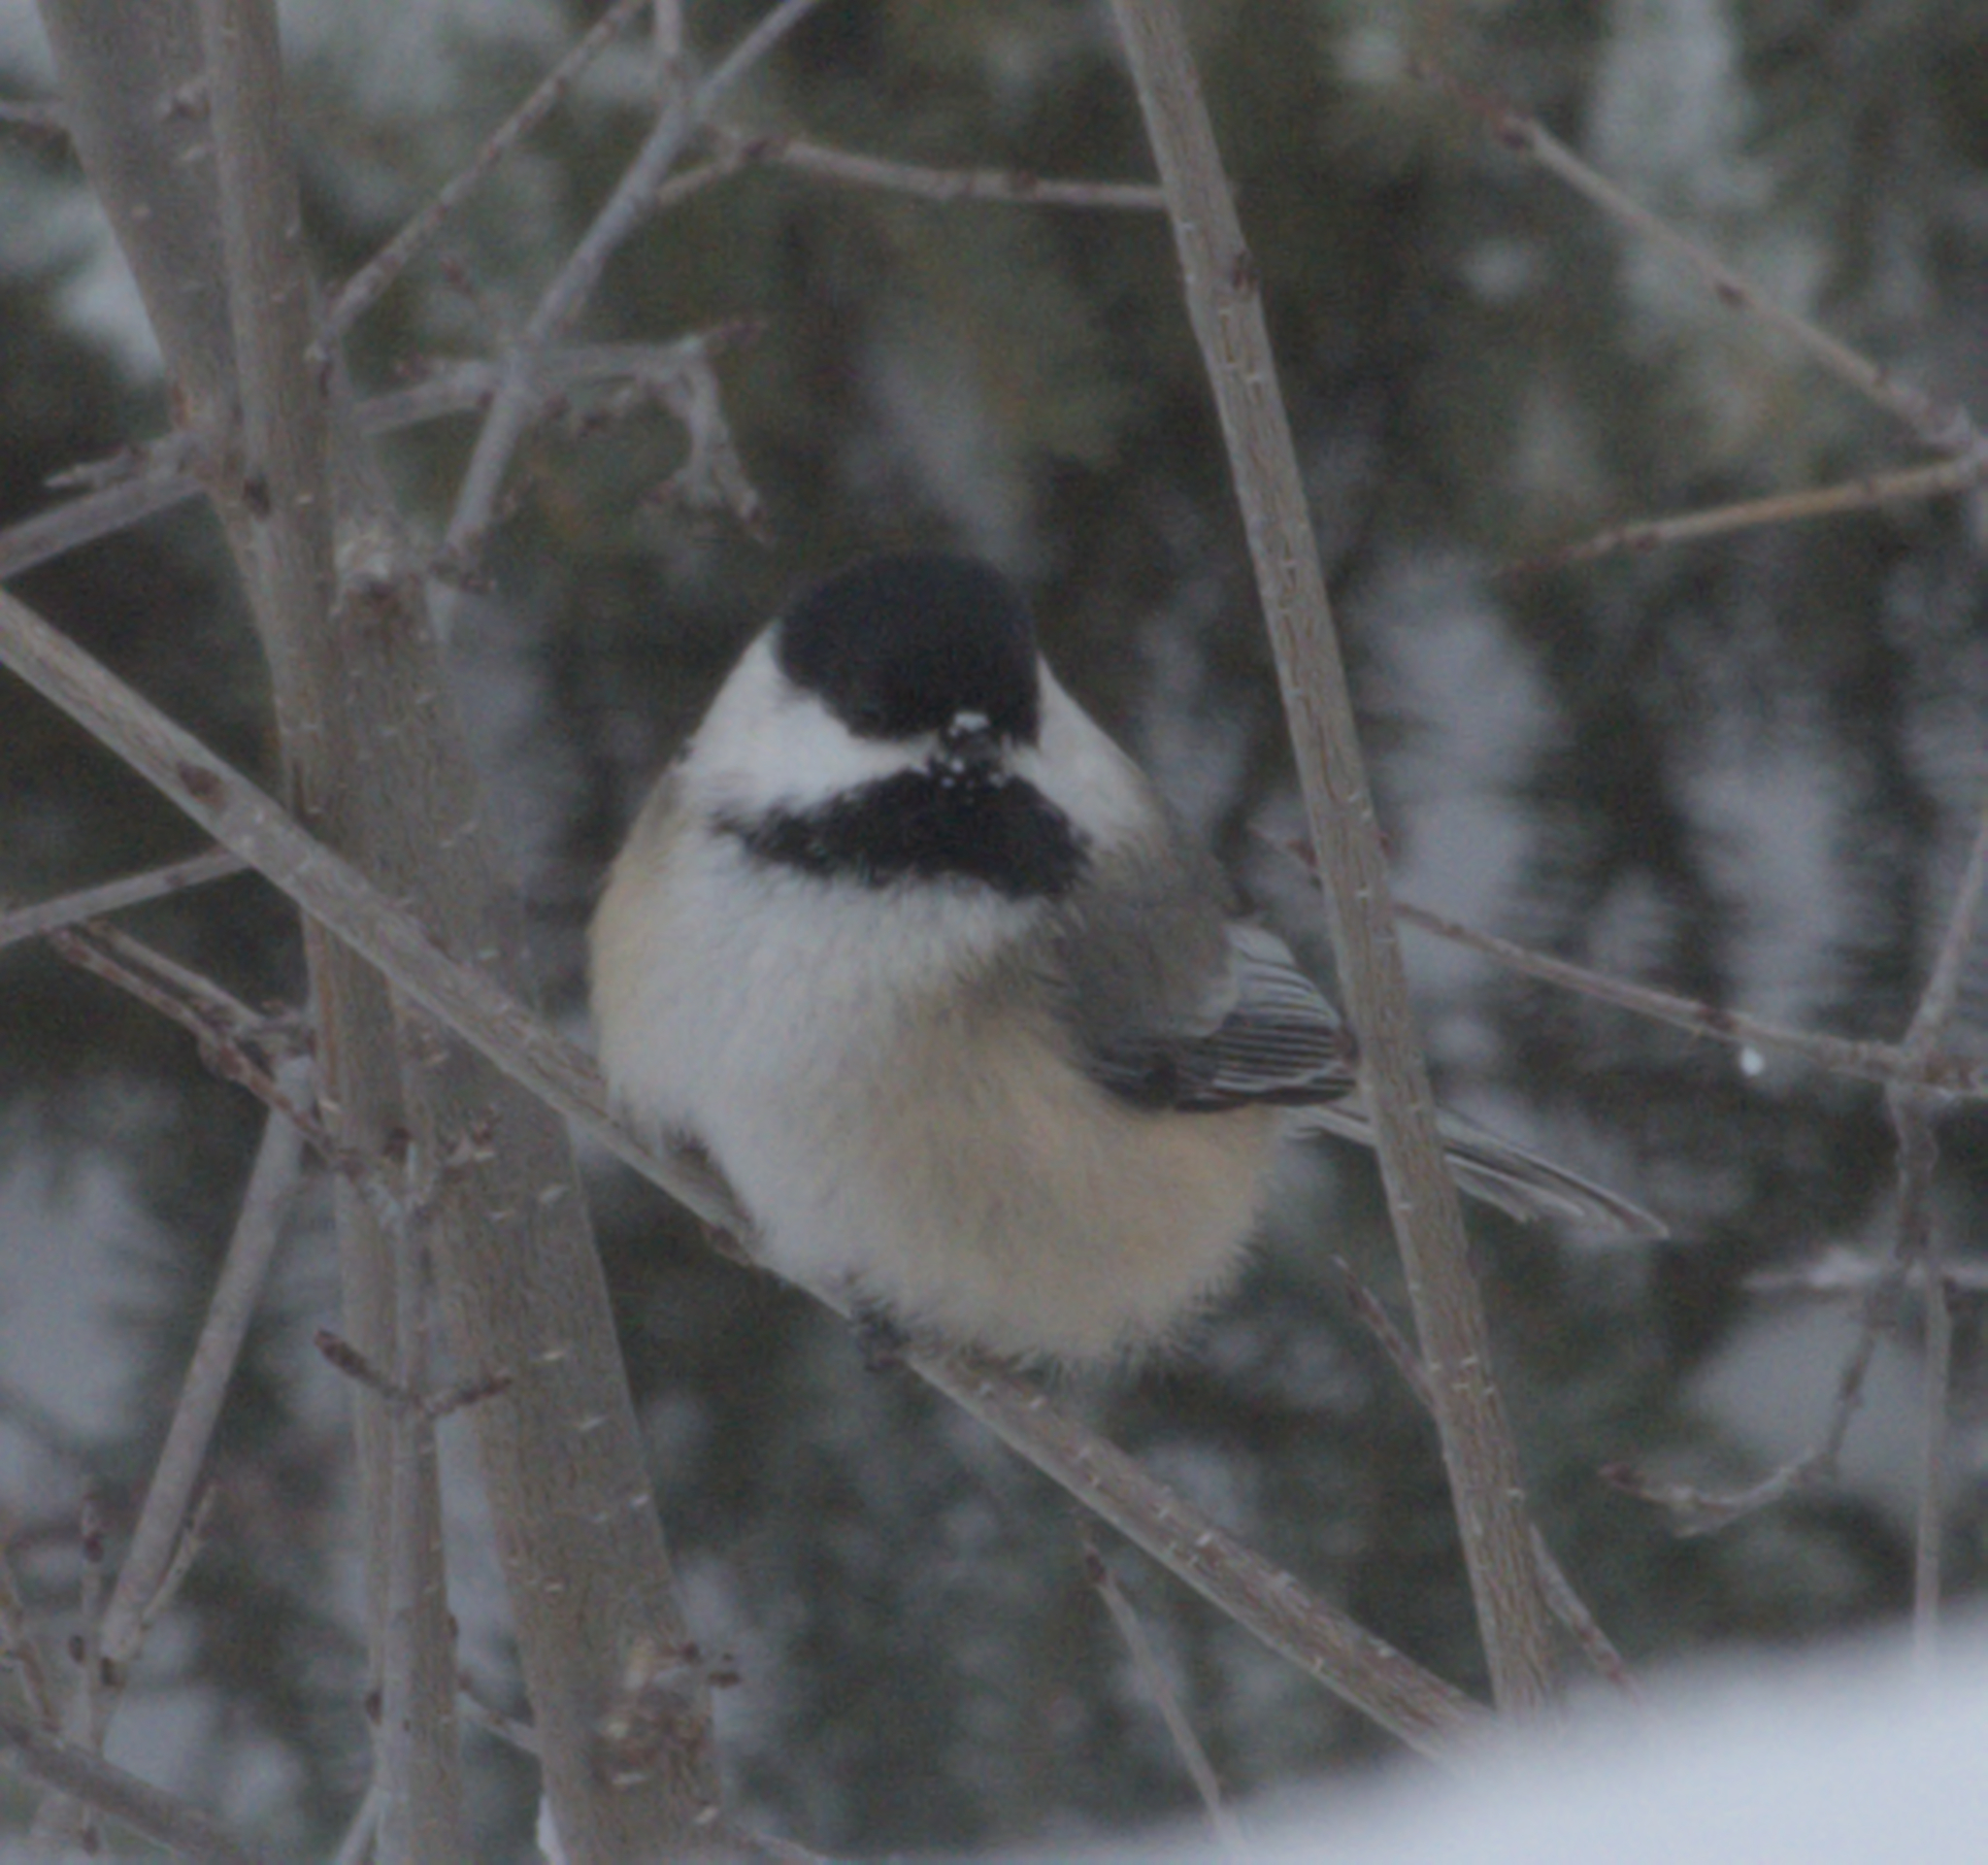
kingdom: Animalia
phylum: Chordata
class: Aves
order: Passeriformes
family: Paridae
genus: Poecile
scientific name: Poecile atricapillus
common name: Black-capped chickadee
